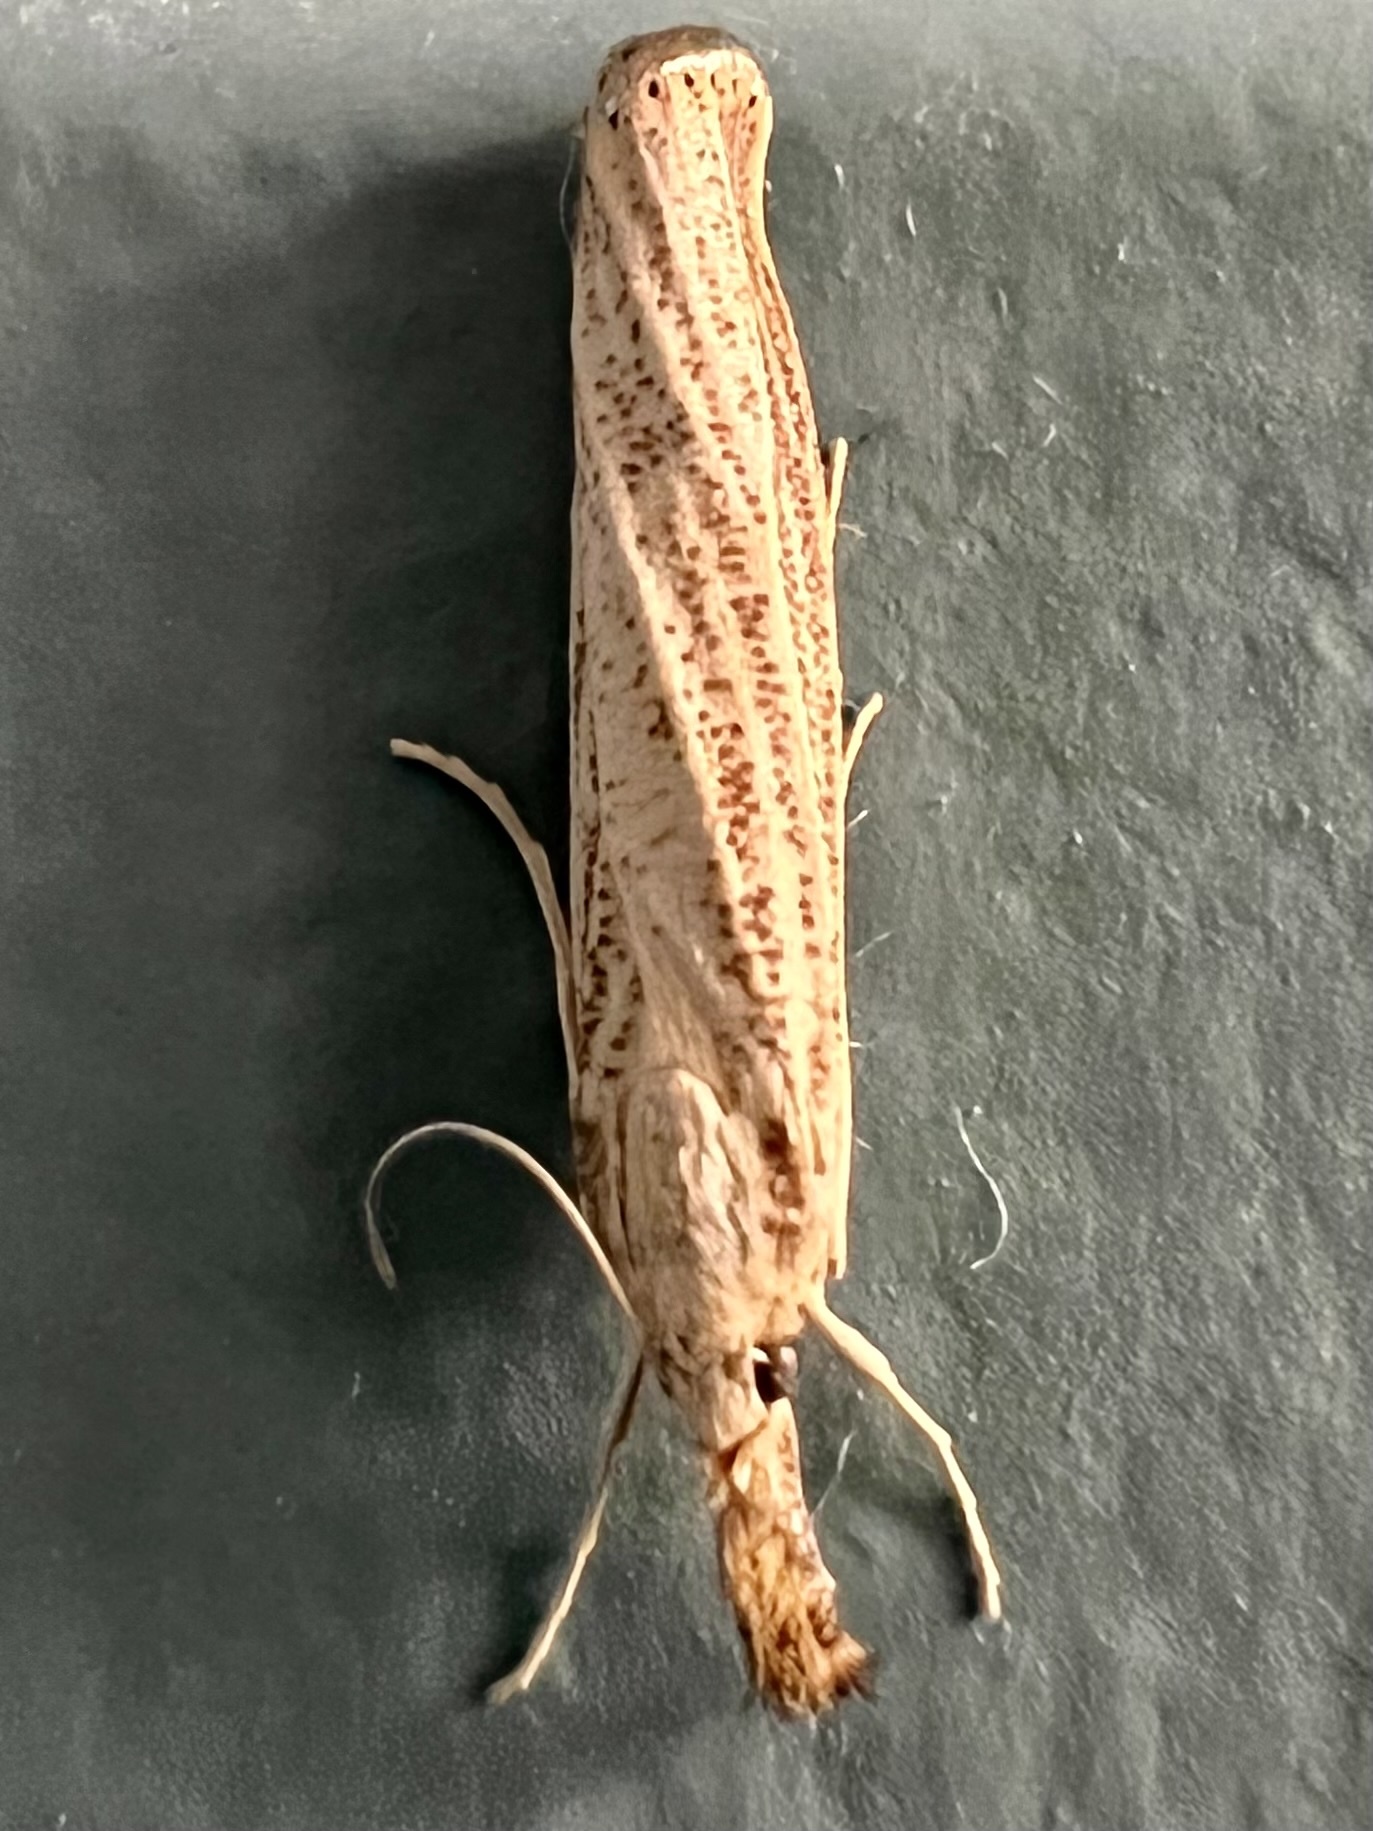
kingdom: Animalia
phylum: Arthropoda
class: Insecta
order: Lepidoptera
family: Crambidae
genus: Agriphila
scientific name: Agriphila vulgivagellus
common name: Vagabond crambus moth
